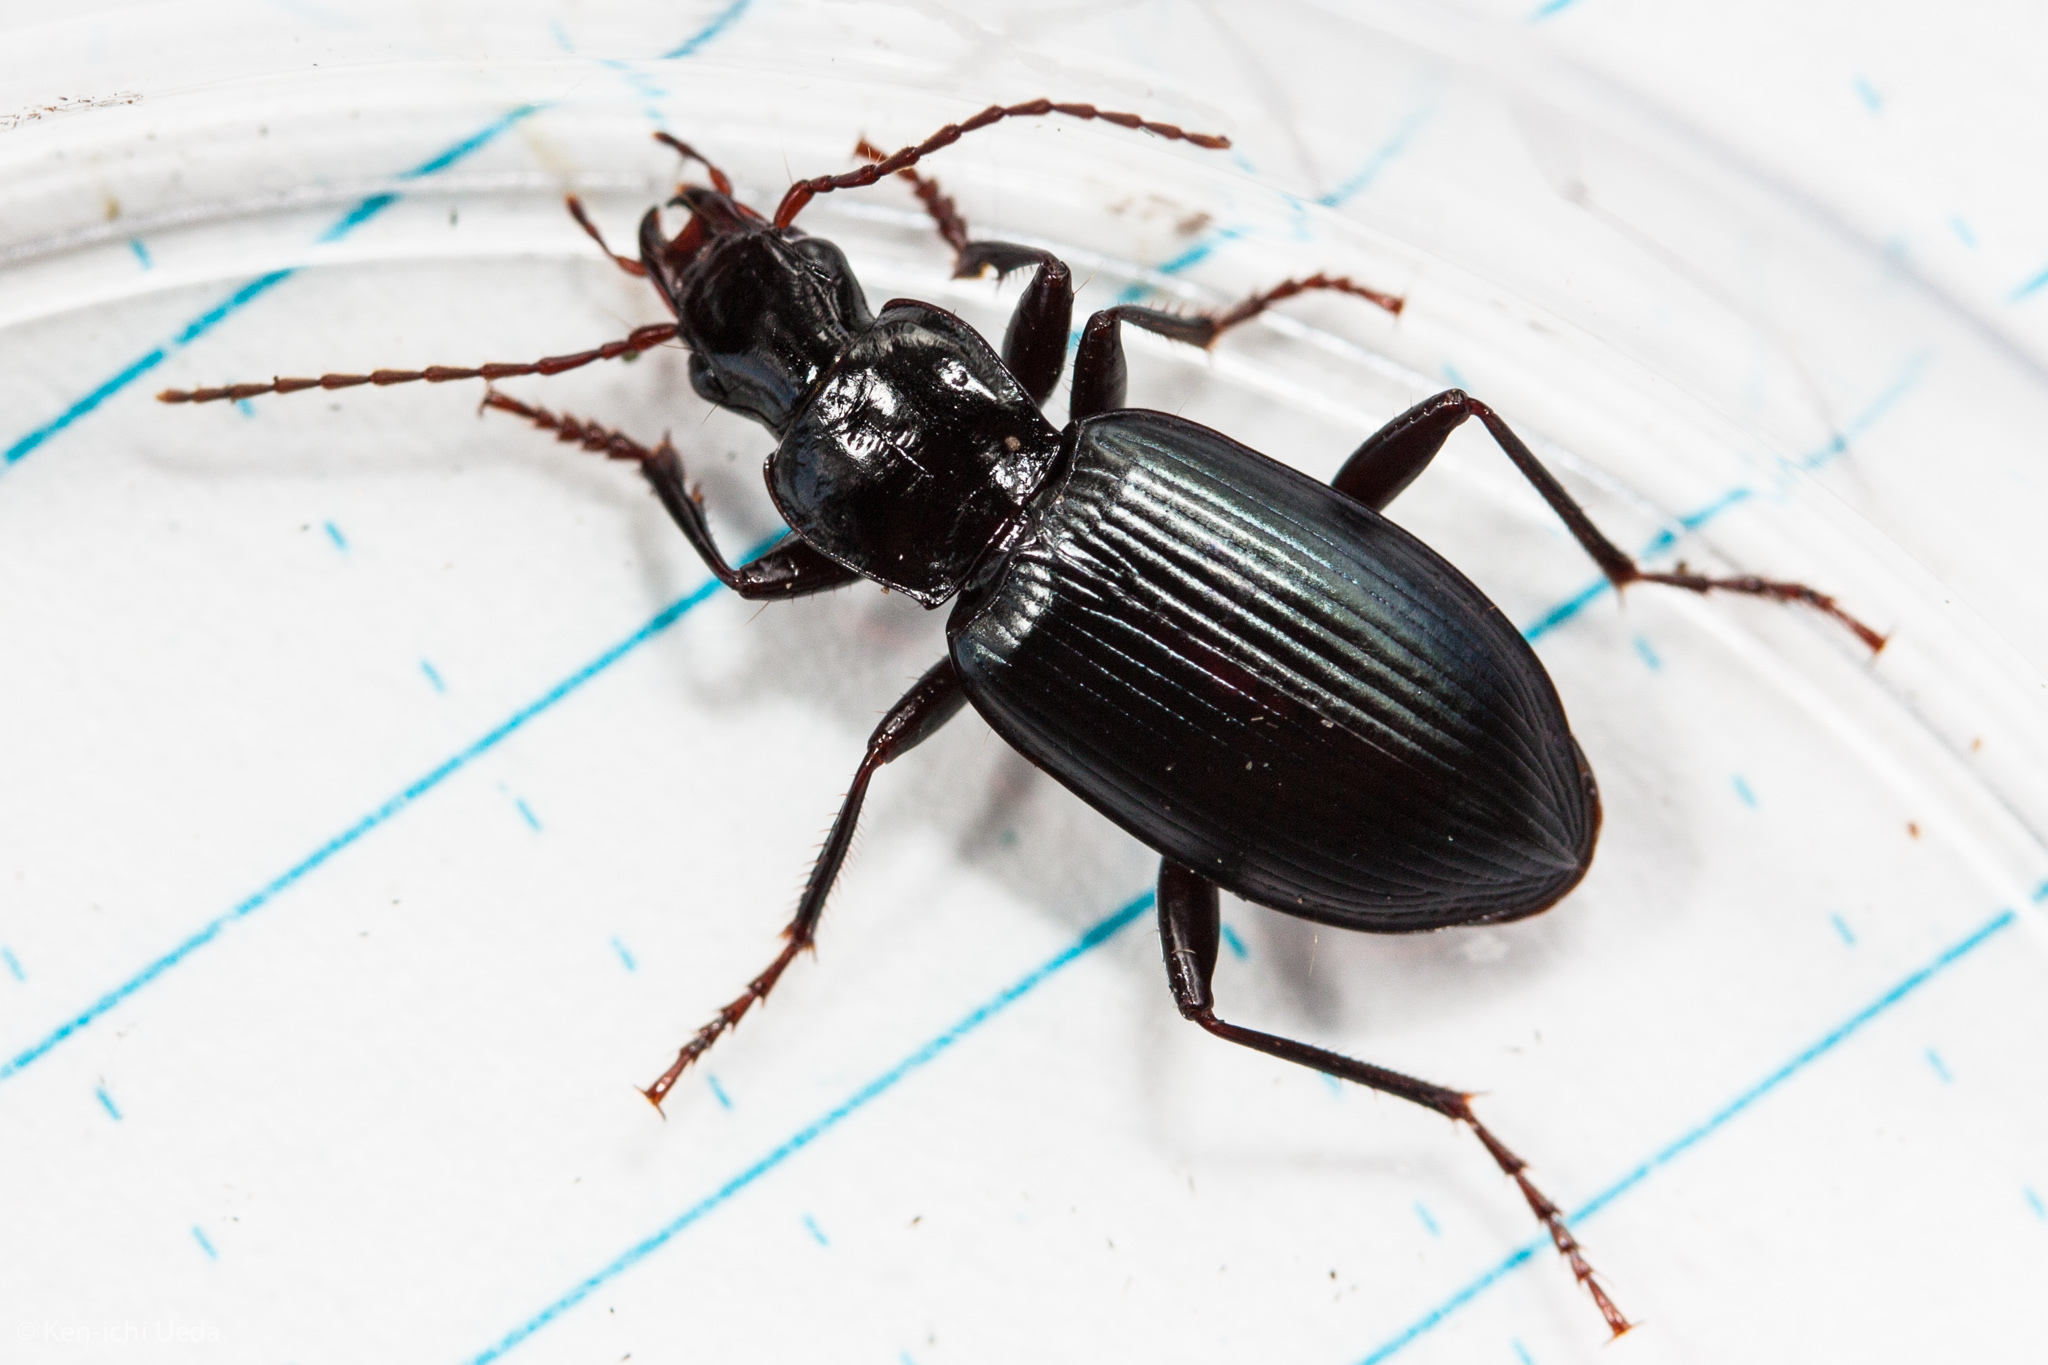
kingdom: Animalia
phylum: Arthropoda
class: Insecta
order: Coleoptera
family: Carabidae
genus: Laemostenus
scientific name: Laemostenus complanatus
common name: Cosmopolitan ground beetle
